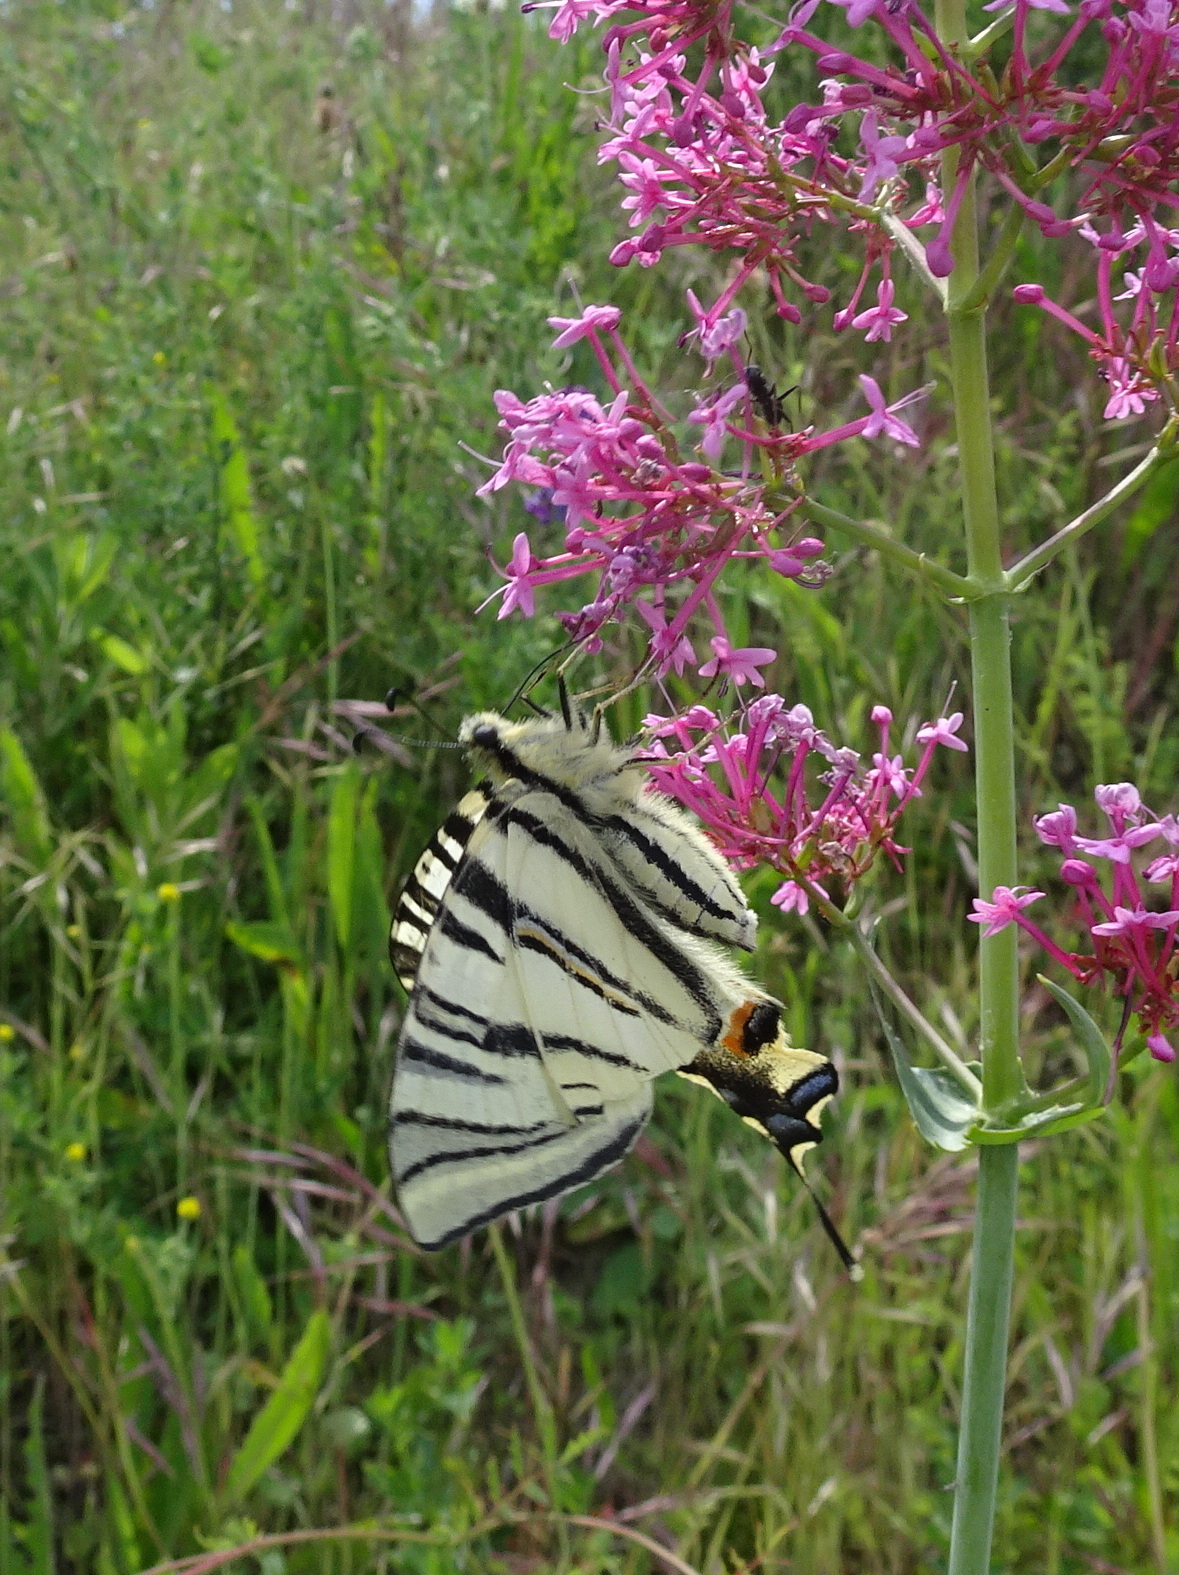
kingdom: Animalia
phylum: Arthropoda
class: Insecta
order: Lepidoptera
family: Papilionidae
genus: Iphiclides
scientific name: Iphiclides podalirius
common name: Scarce swallowtail
